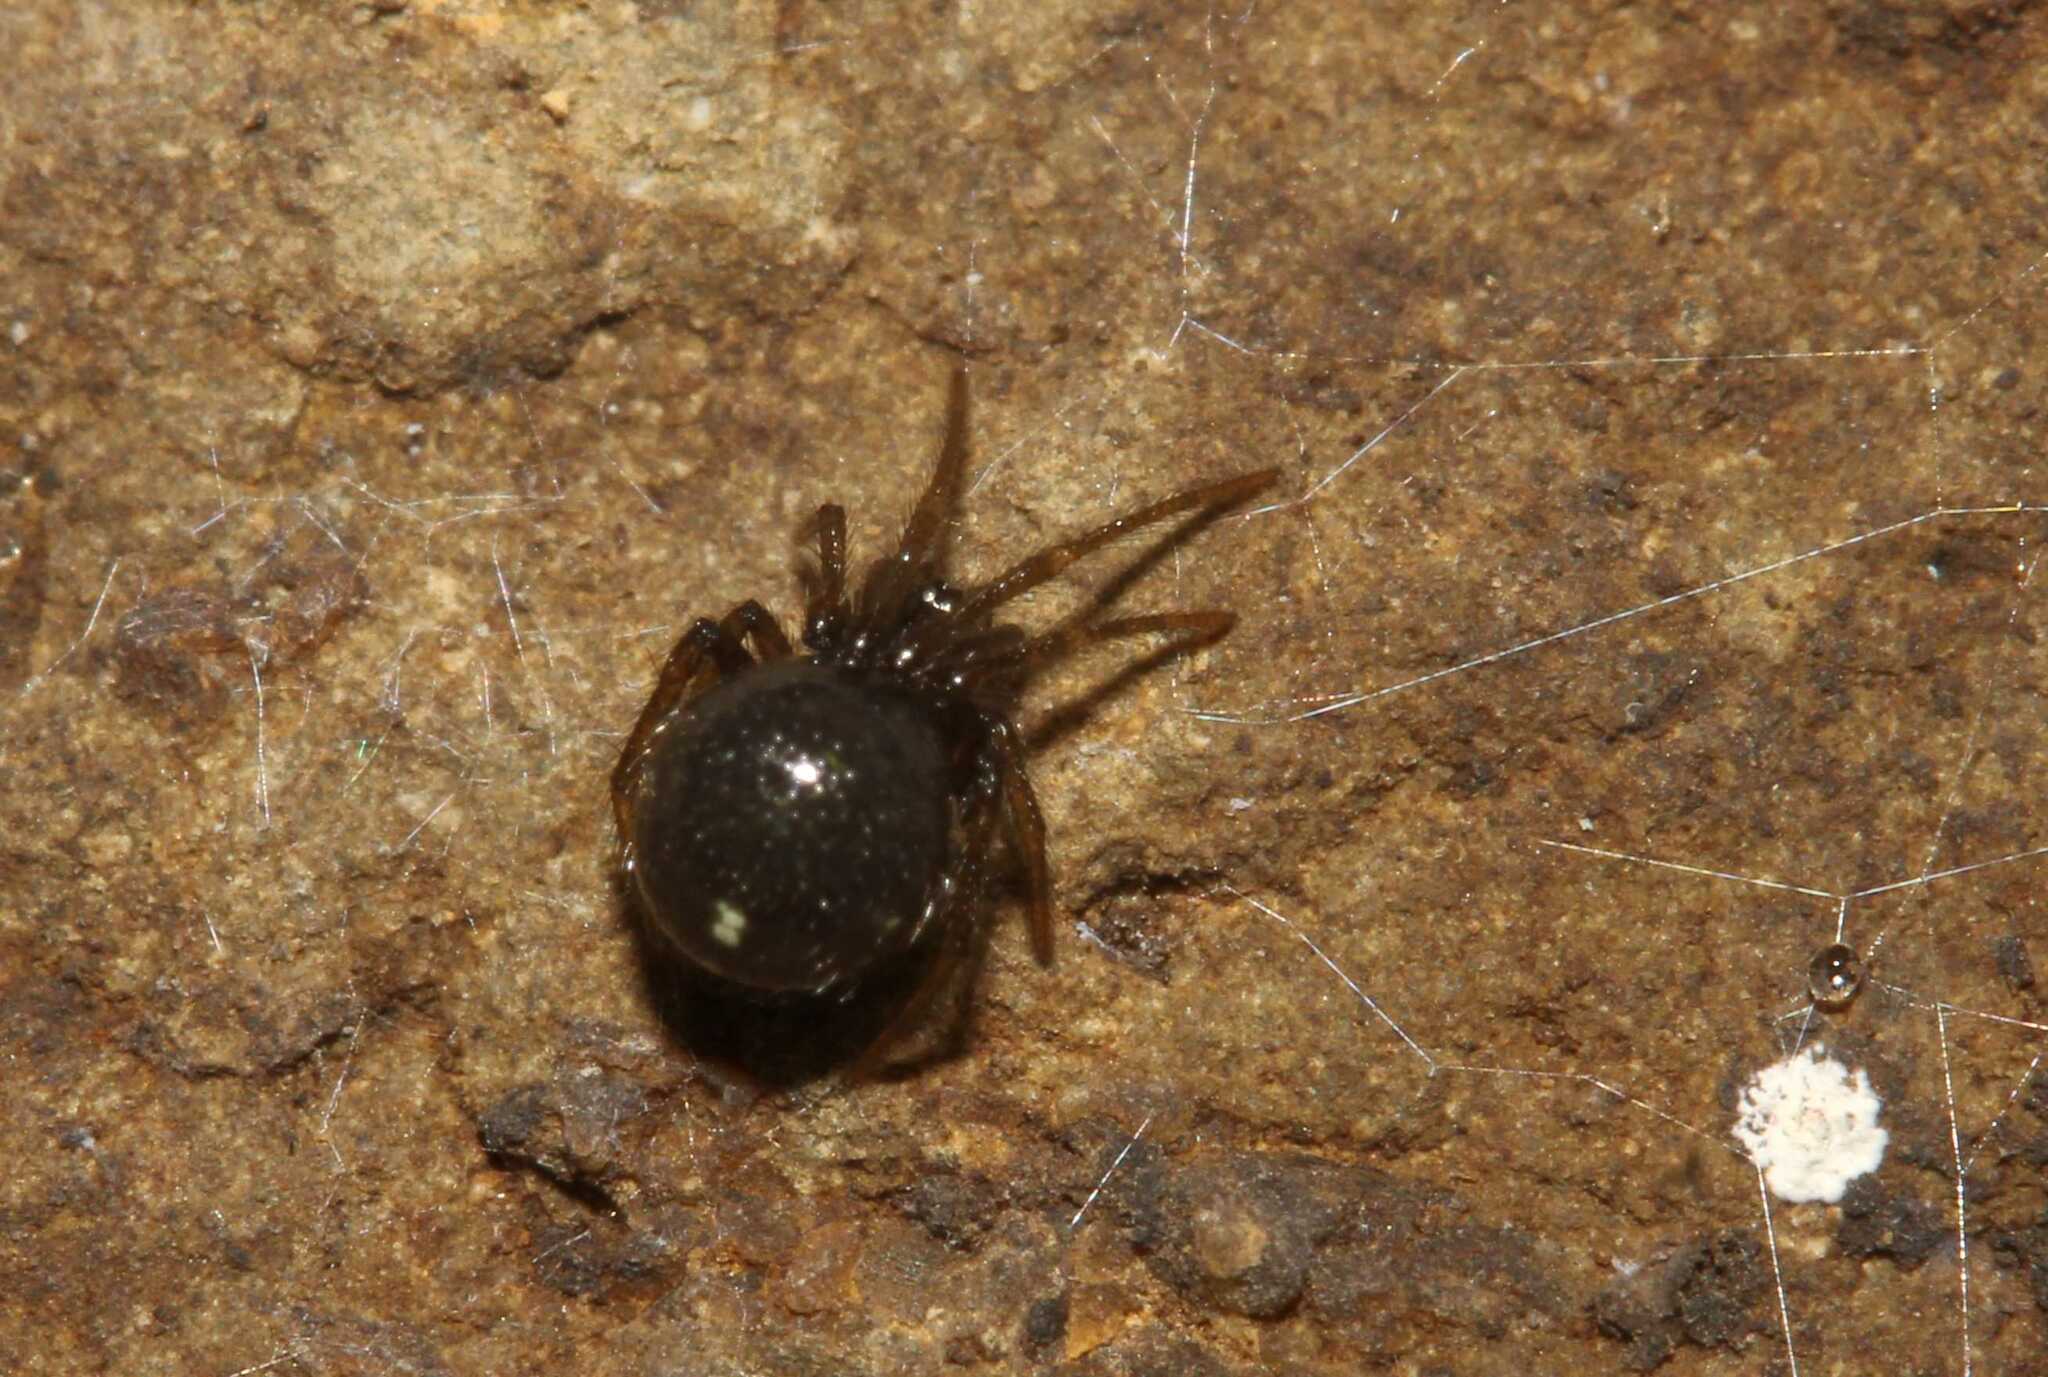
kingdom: Animalia
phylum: Arthropoda
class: Arachnida
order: Araneae
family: Theridiidae
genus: Nesticodes
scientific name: Nesticodes rufipes
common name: Cobweb spiders
